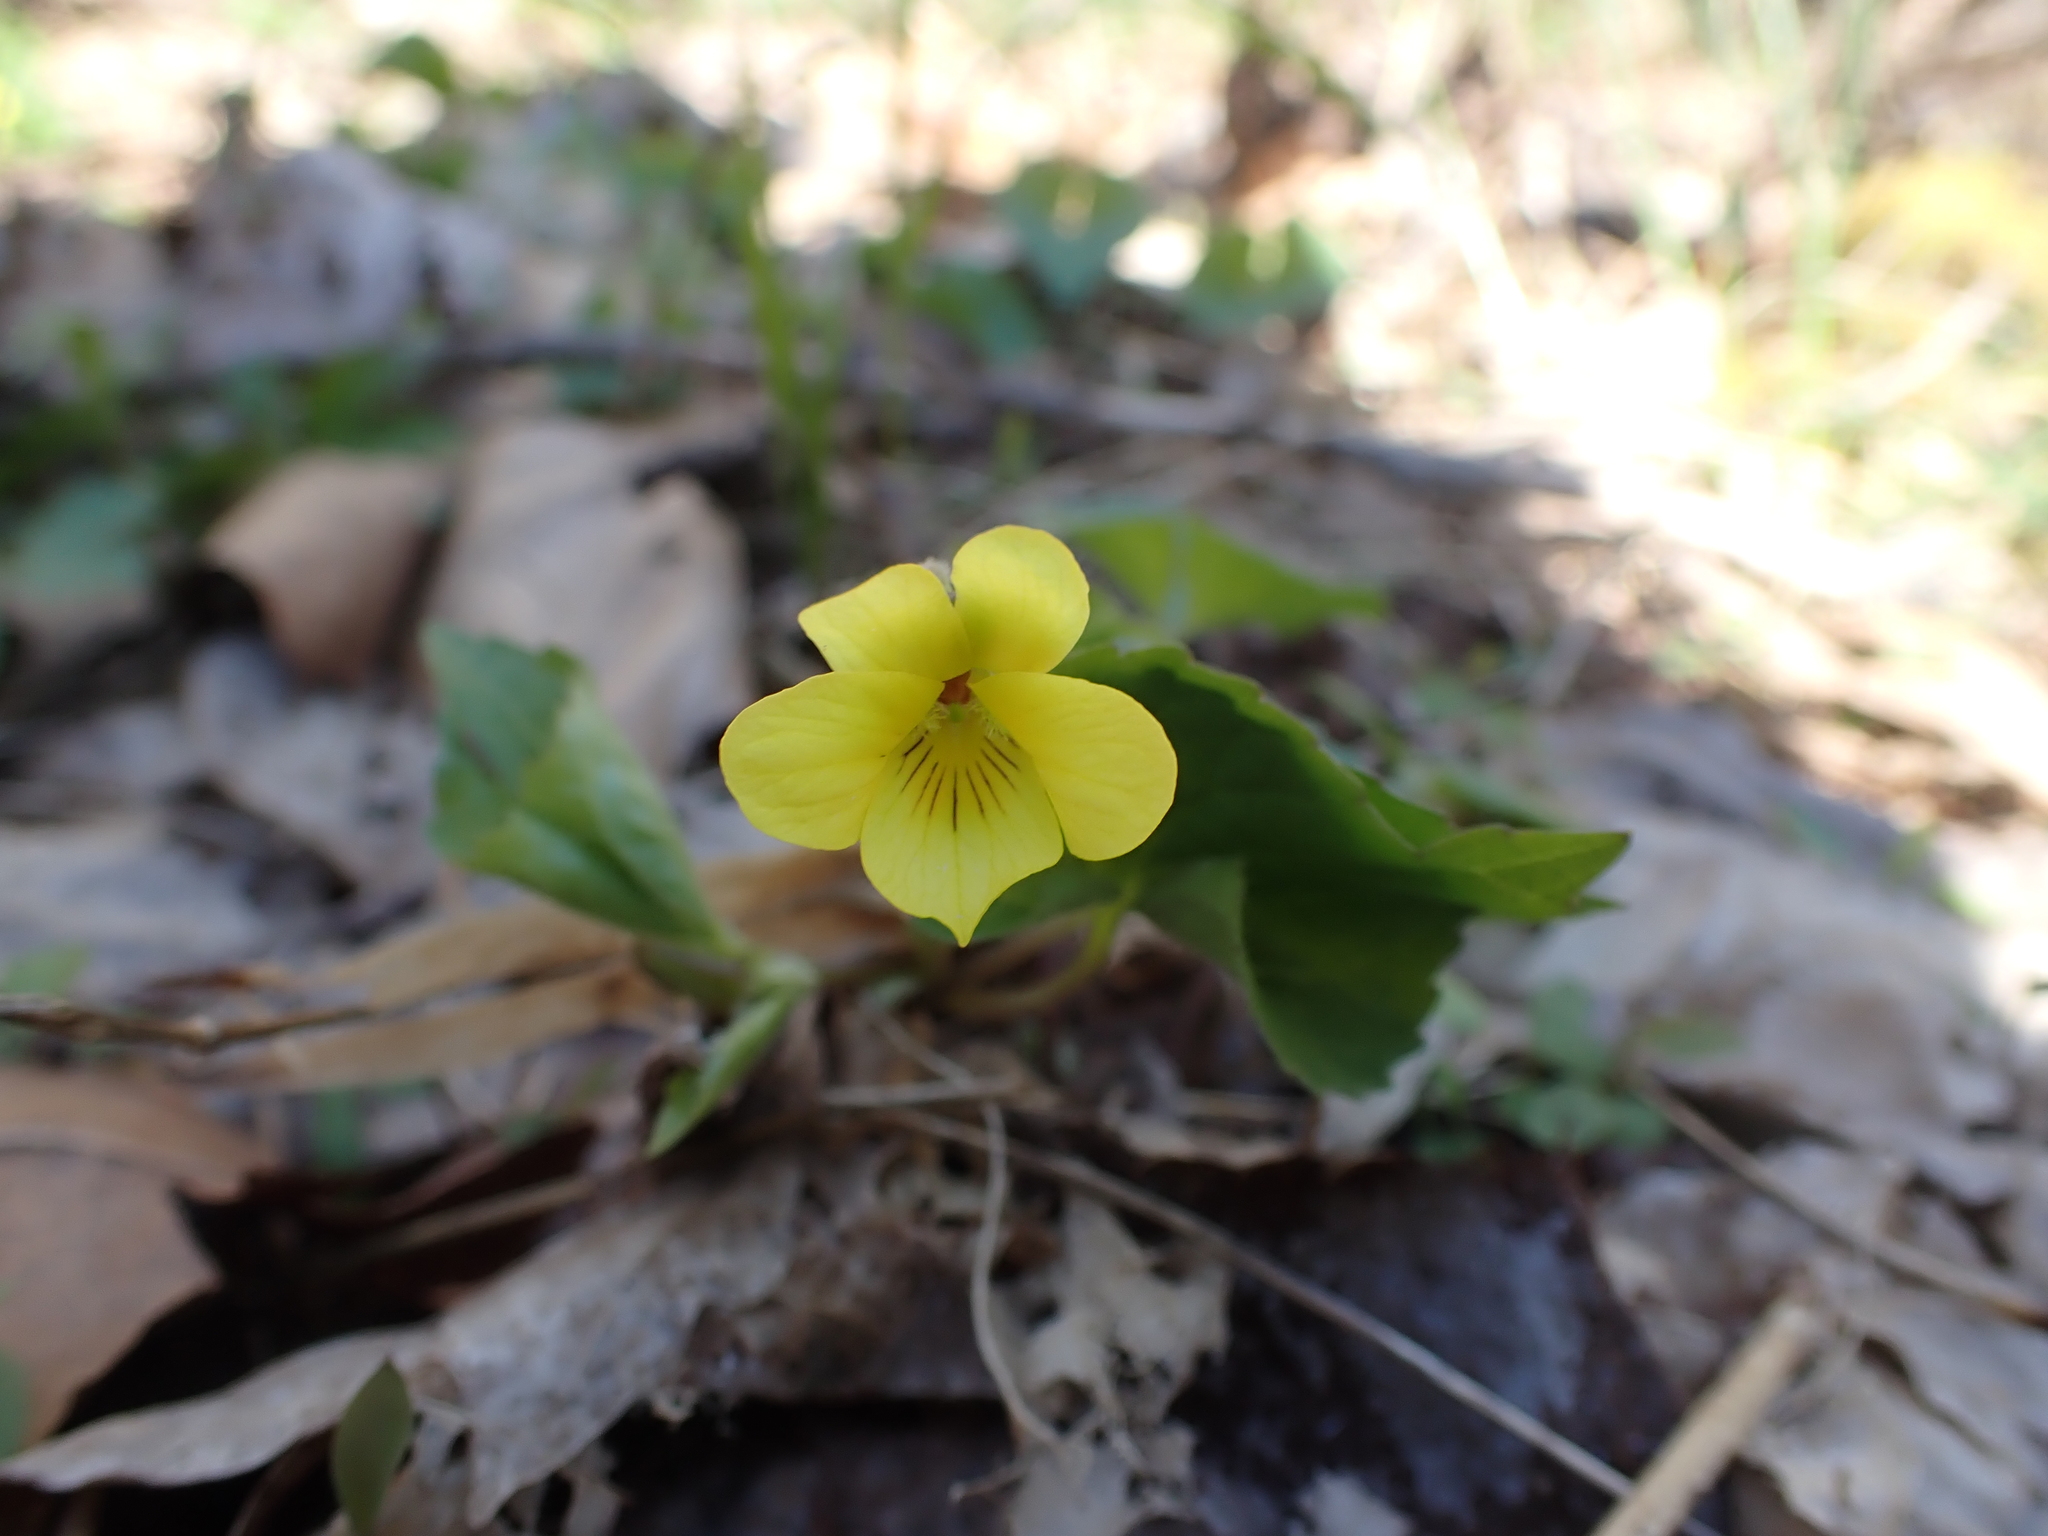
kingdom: Plantae
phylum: Tracheophyta
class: Magnoliopsida
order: Malpighiales
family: Violaceae
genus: Viola
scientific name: Viola eriocarpa
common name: Smooth yellow violet
